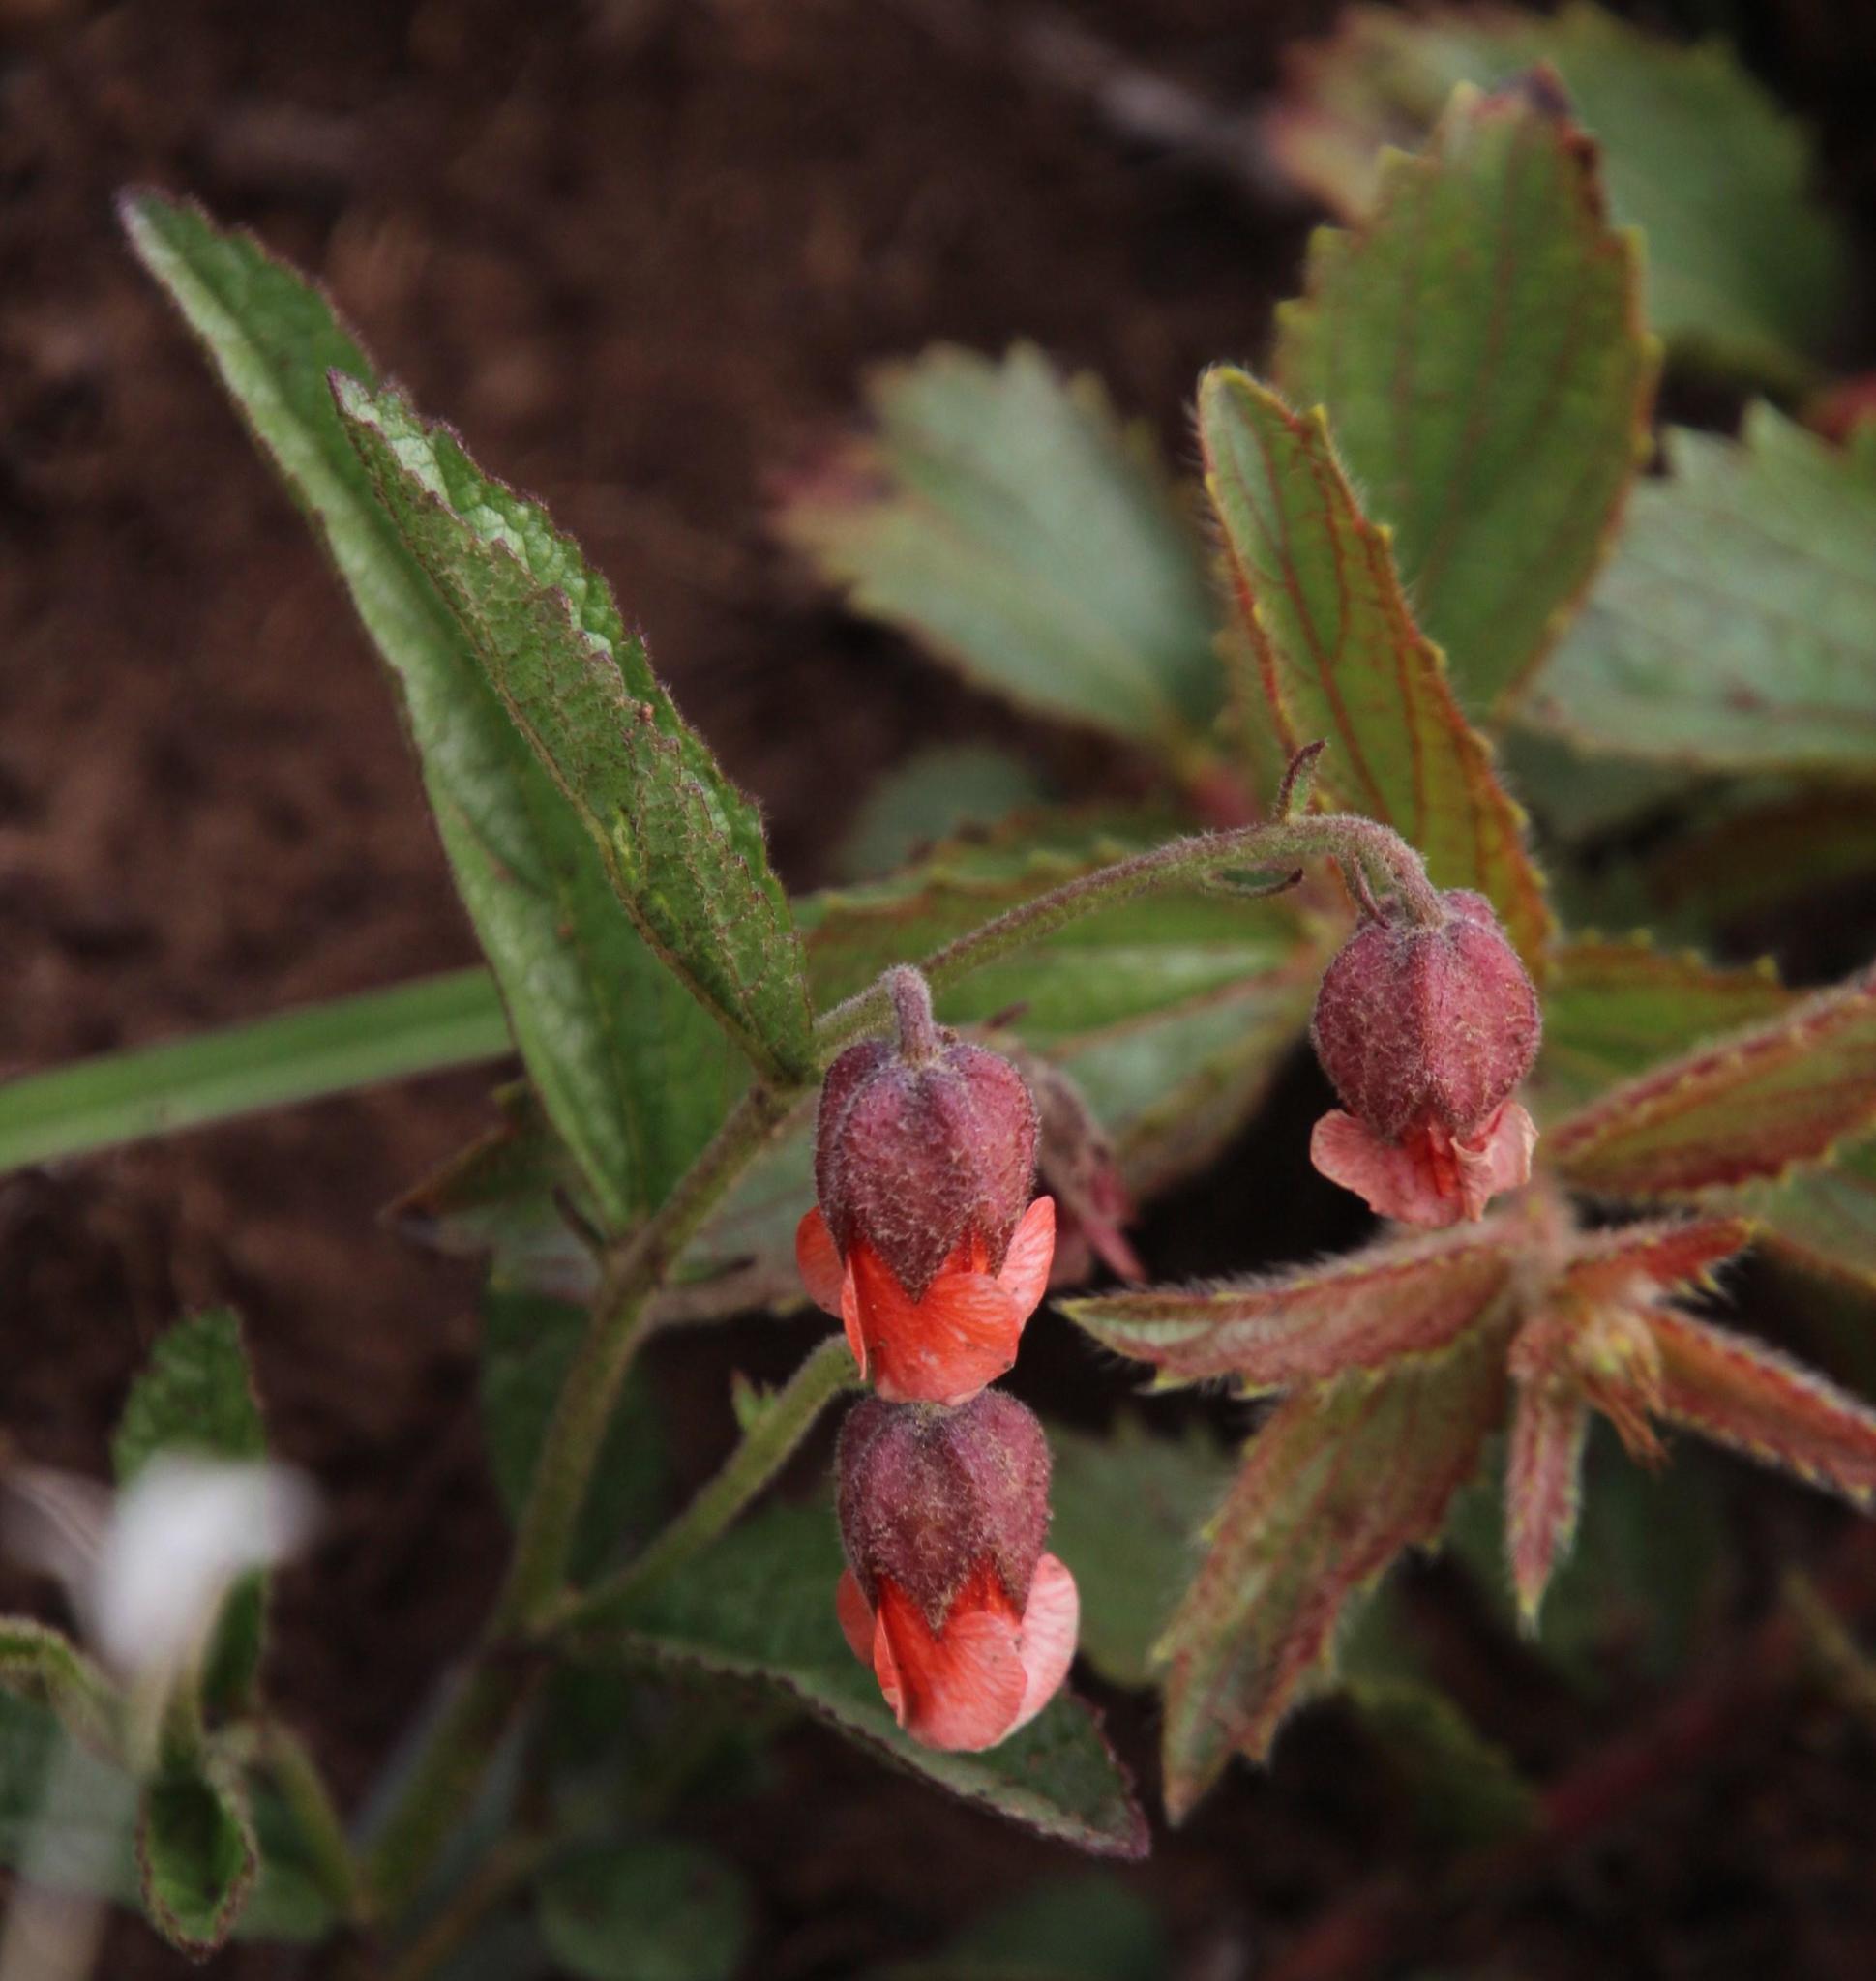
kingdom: Plantae
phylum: Tracheophyta
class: Magnoliopsida
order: Malvales
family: Malvaceae
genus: Hermannia
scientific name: Hermannia cristata
